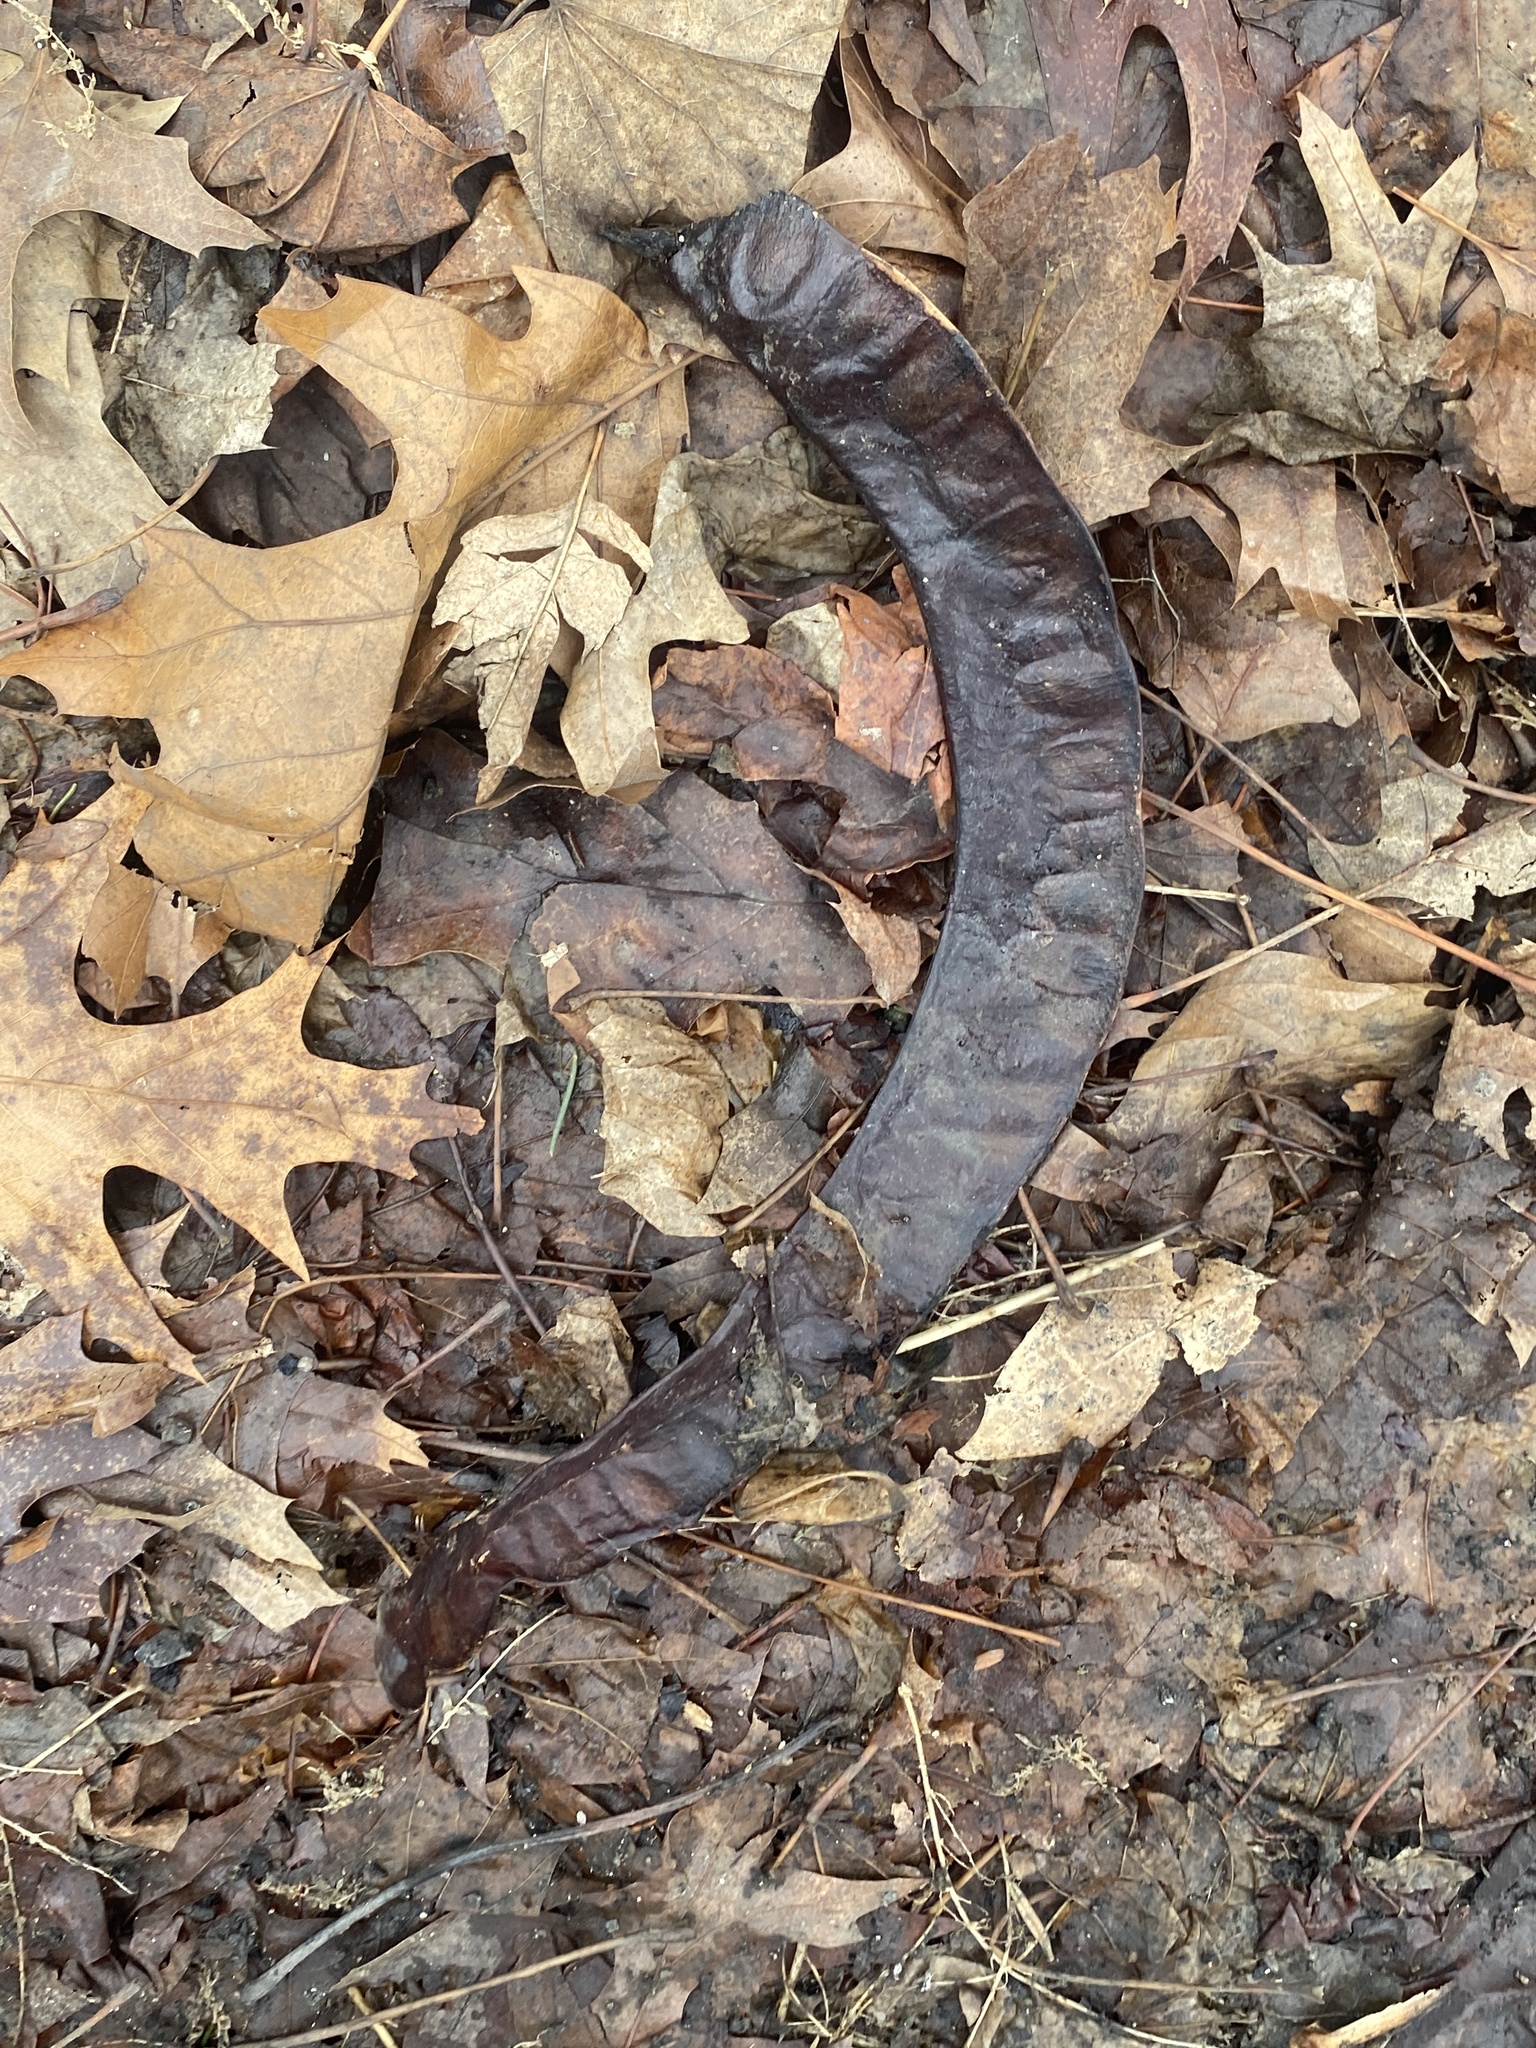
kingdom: Plantae
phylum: Tracheophyta
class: Magnoliopsida
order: Fabales
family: Fabaceae
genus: Gleditsia
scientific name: Gleditsia triacanthos
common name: Common honeylocust
